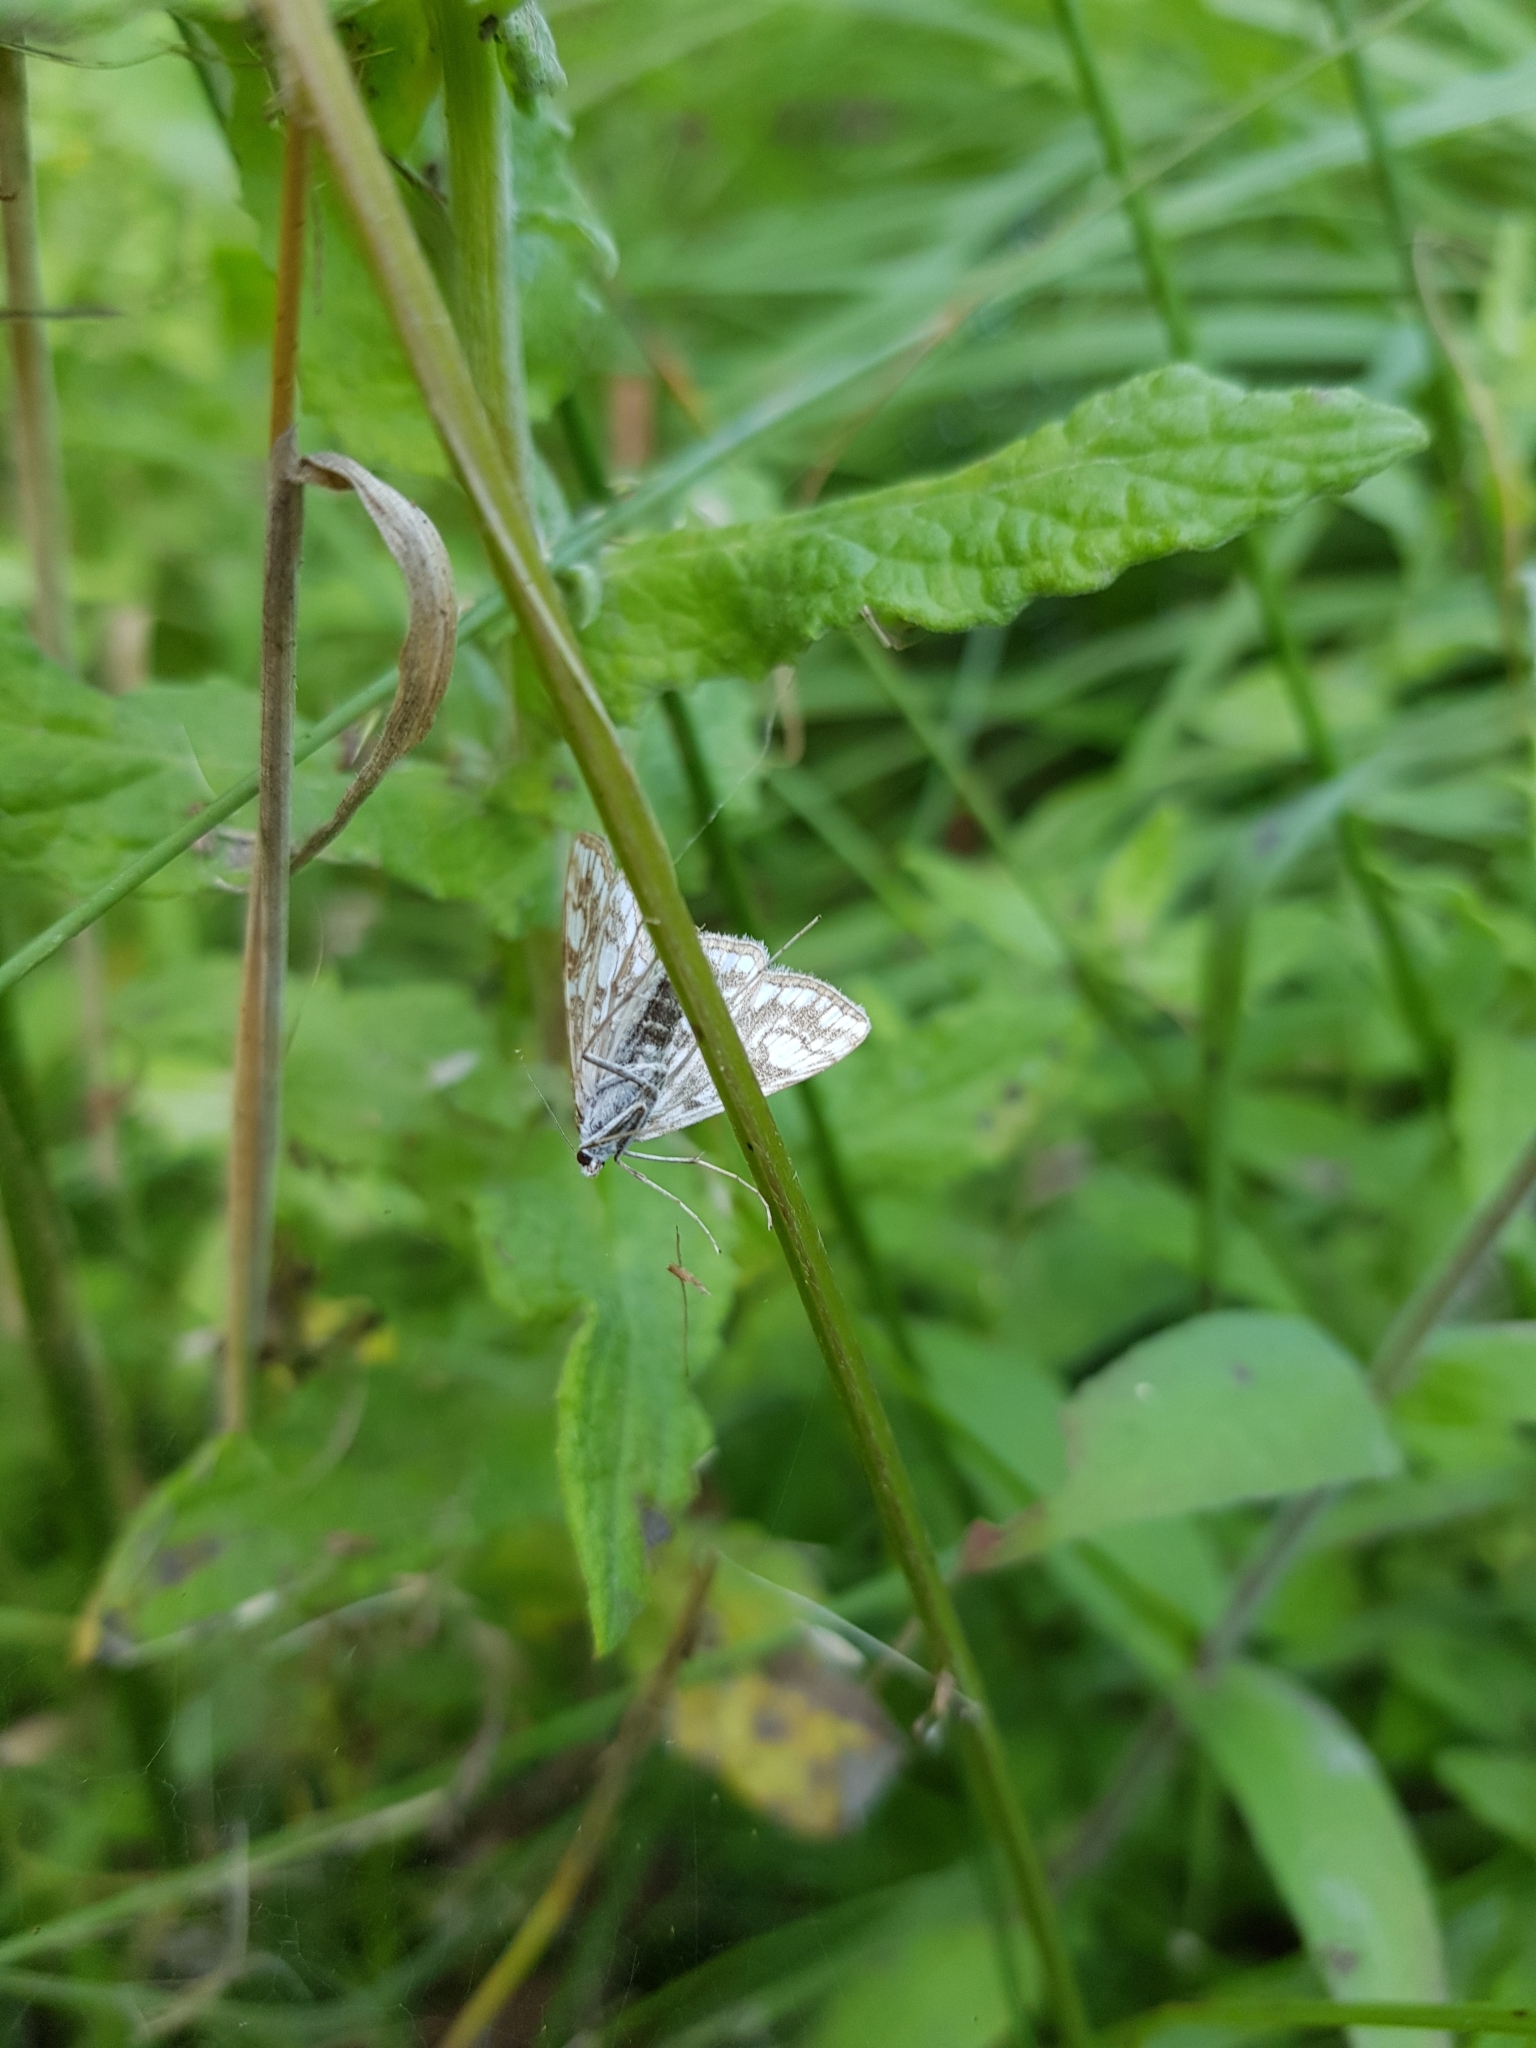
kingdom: Animalia
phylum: Arthropoda
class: Insecta
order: Lepidoptera
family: Crambidae
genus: Elophila
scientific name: Elophila nymphaeata
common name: Brown china-mark
